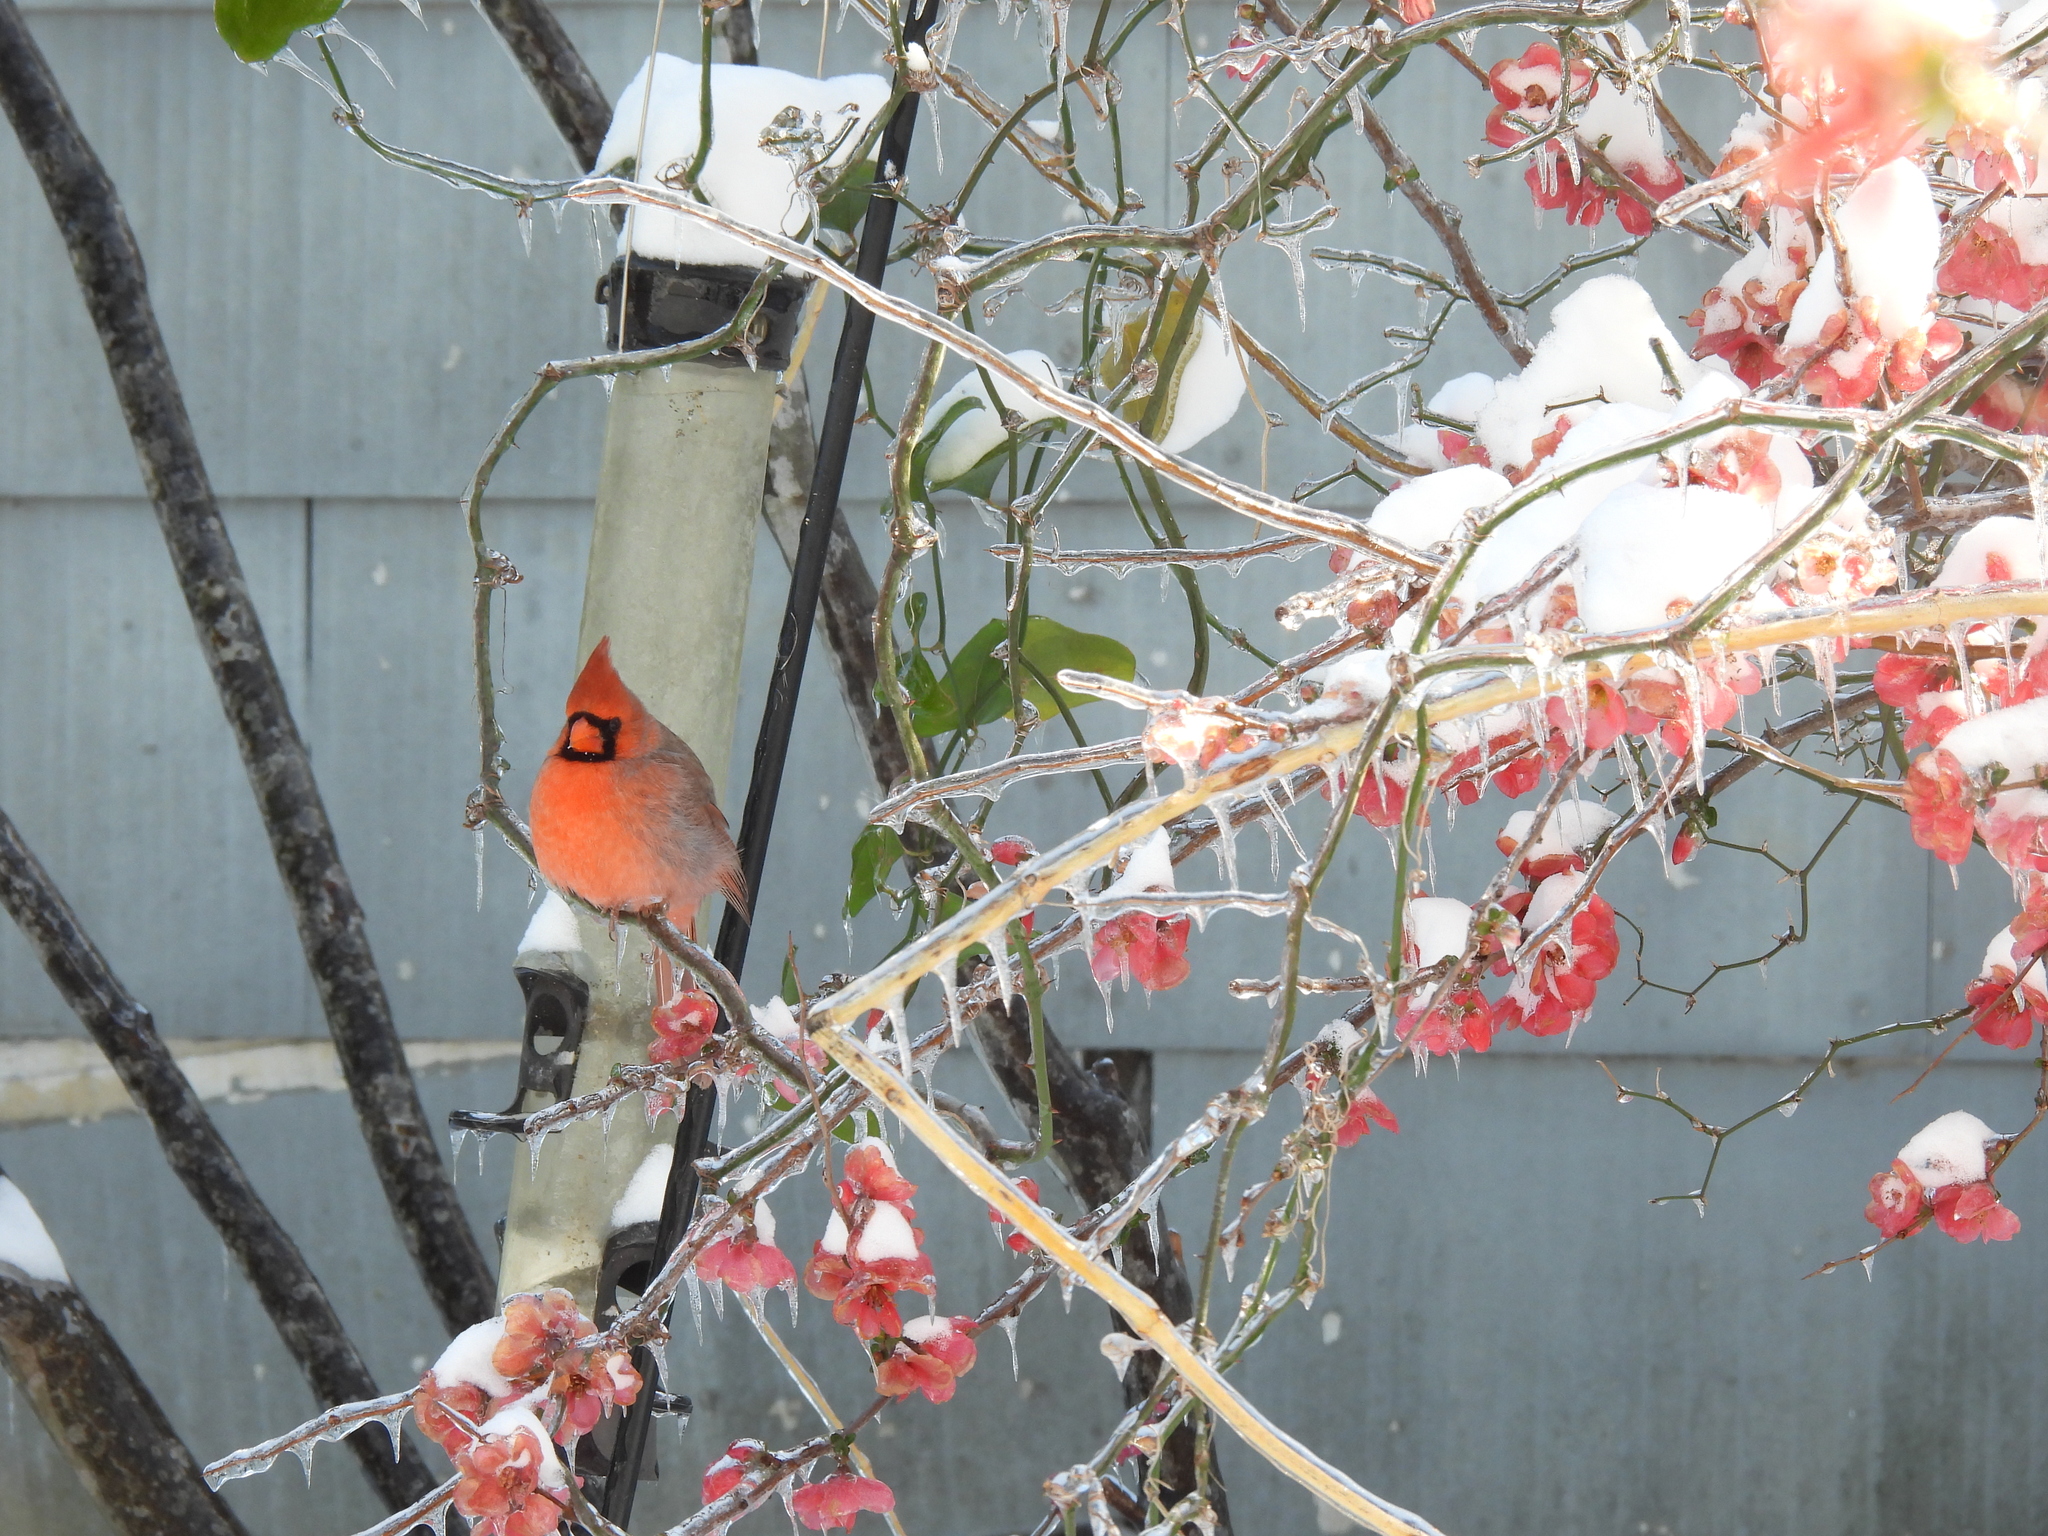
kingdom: Animalia
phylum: Chordata
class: Aves
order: Passeriformes
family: Cardinalidae
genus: Cardinalis
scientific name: Cardinalis cardinalis
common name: Northern cardinal
